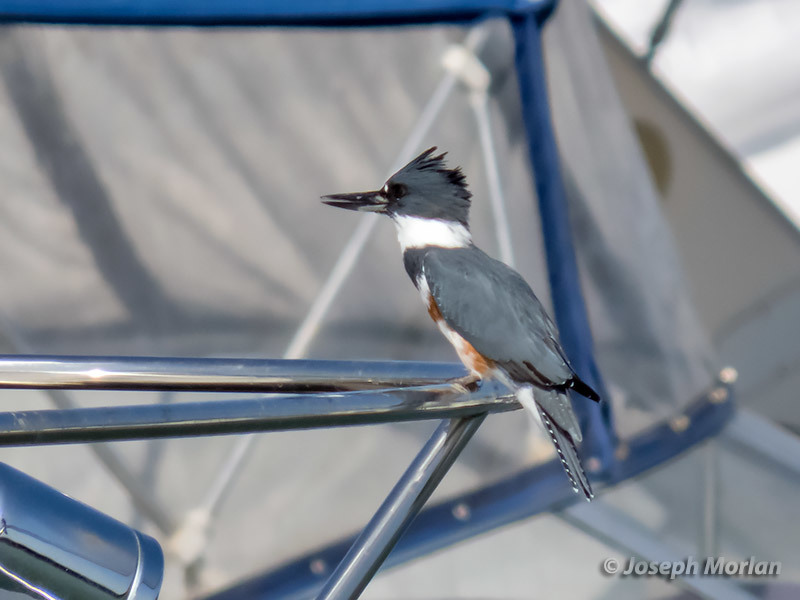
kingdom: Animalia
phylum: Chordata
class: Aves
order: Coraciiformes
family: Alcedinidae
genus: Megaceryle
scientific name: Megaceryle alcyon
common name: Belted kingfisher
